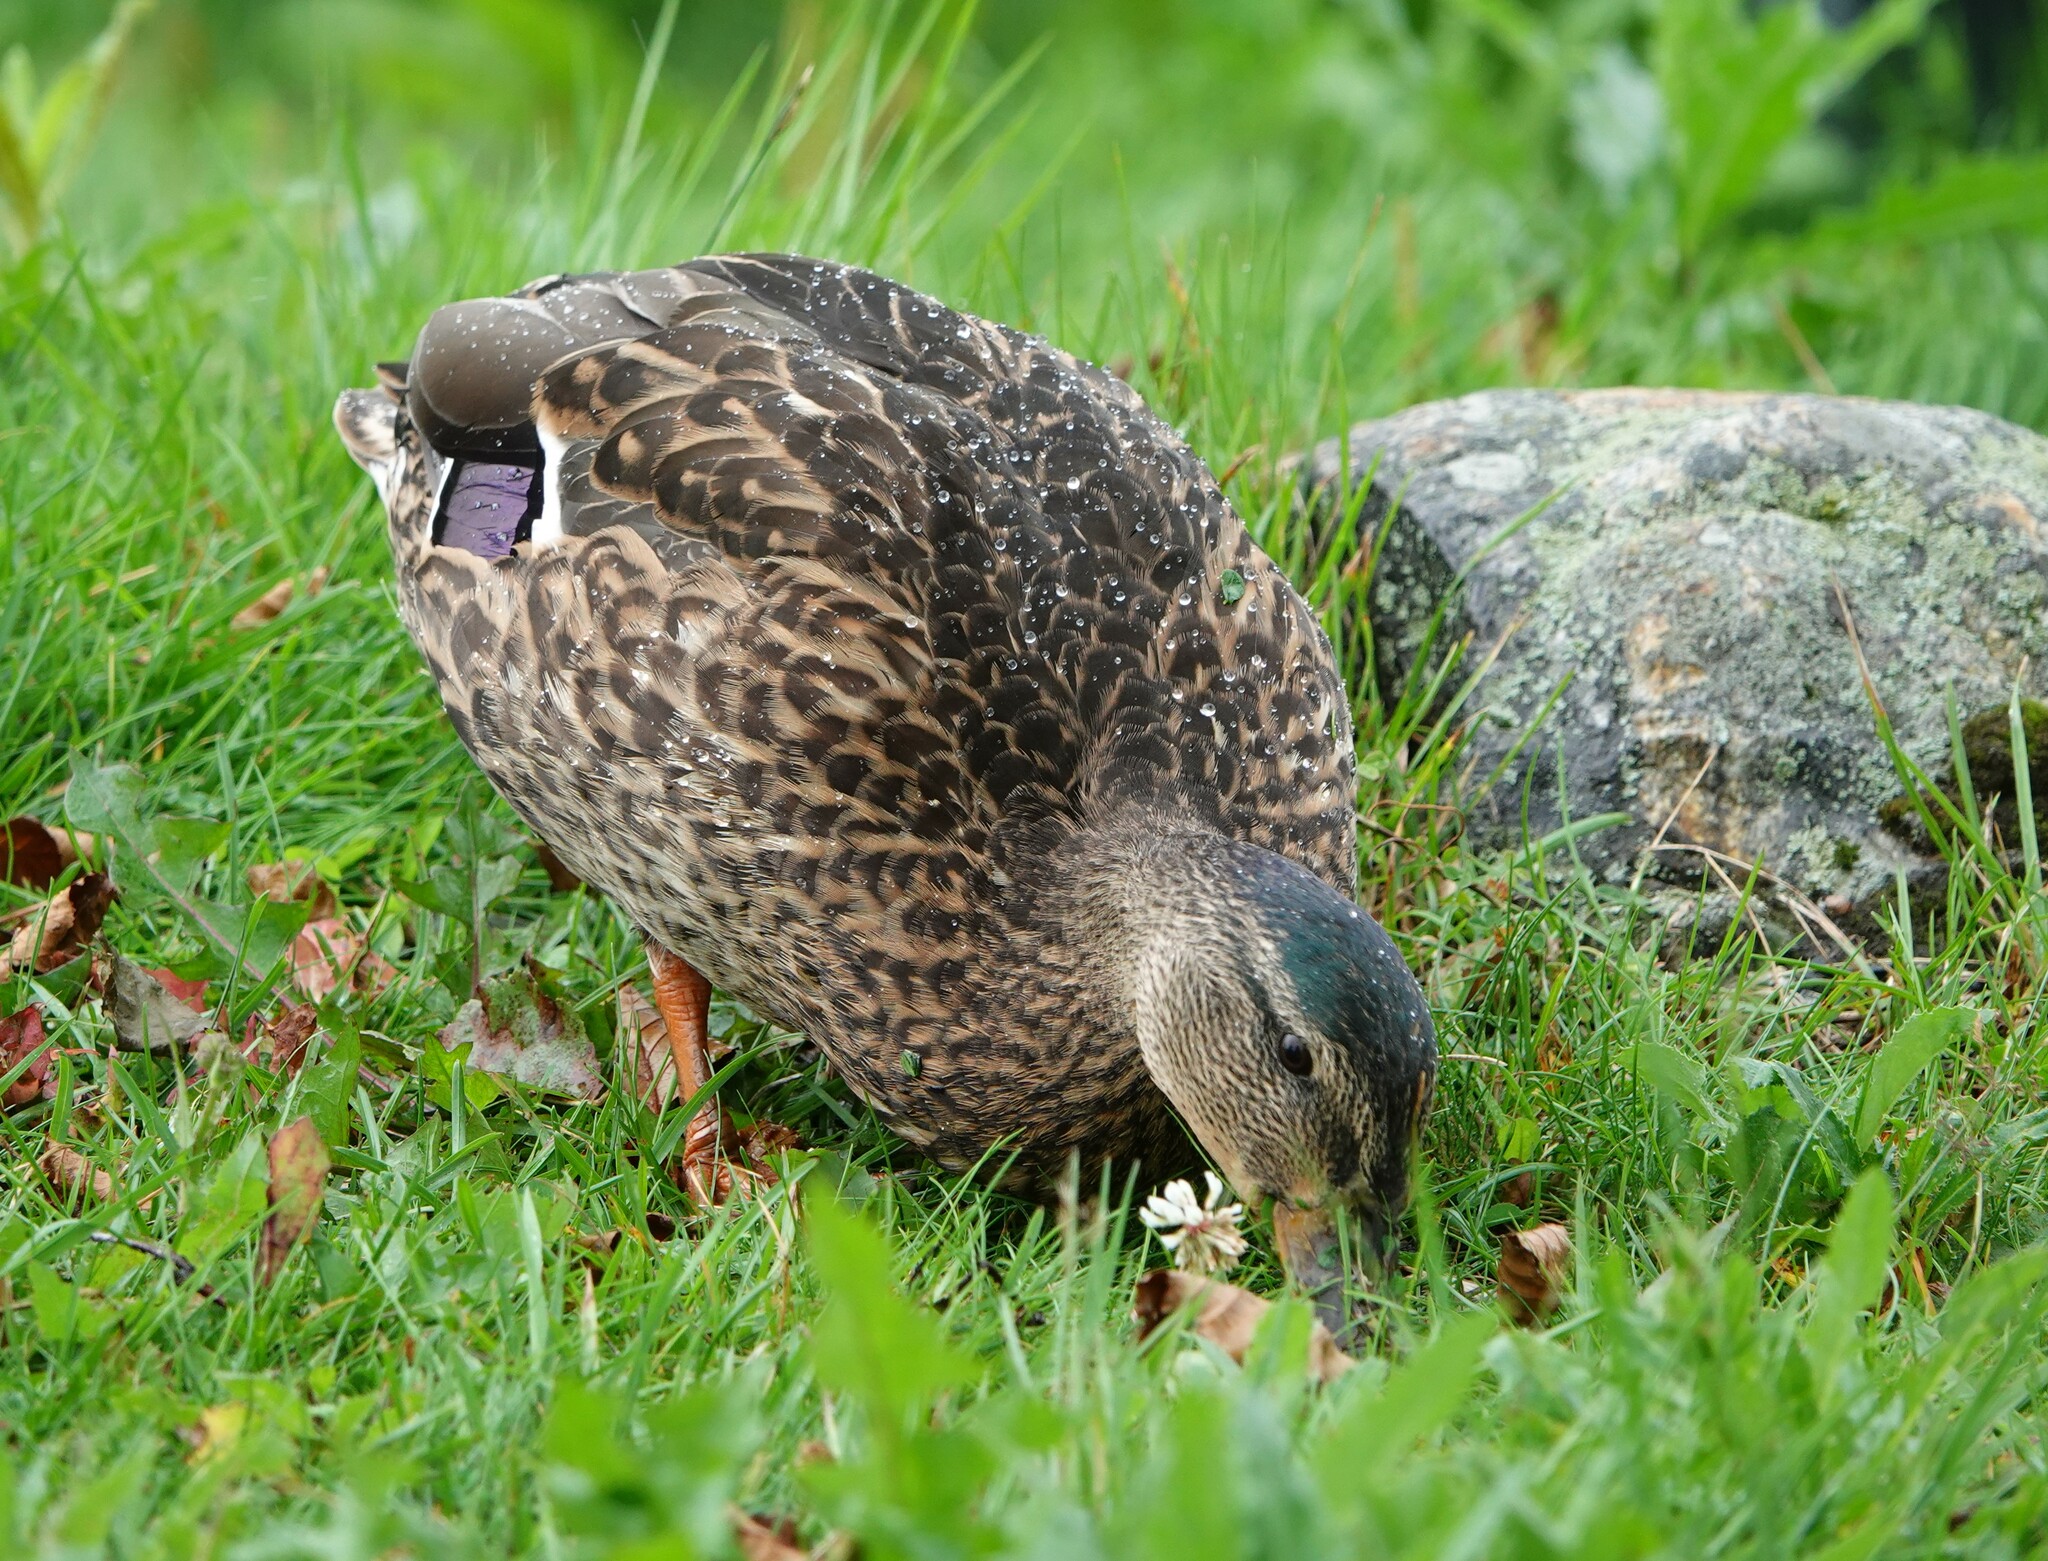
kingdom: Animalia
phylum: Chordata
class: Aves
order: Anseriformes
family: Anatidae
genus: Anas
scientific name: Anas platyrhynchos
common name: Mallard
